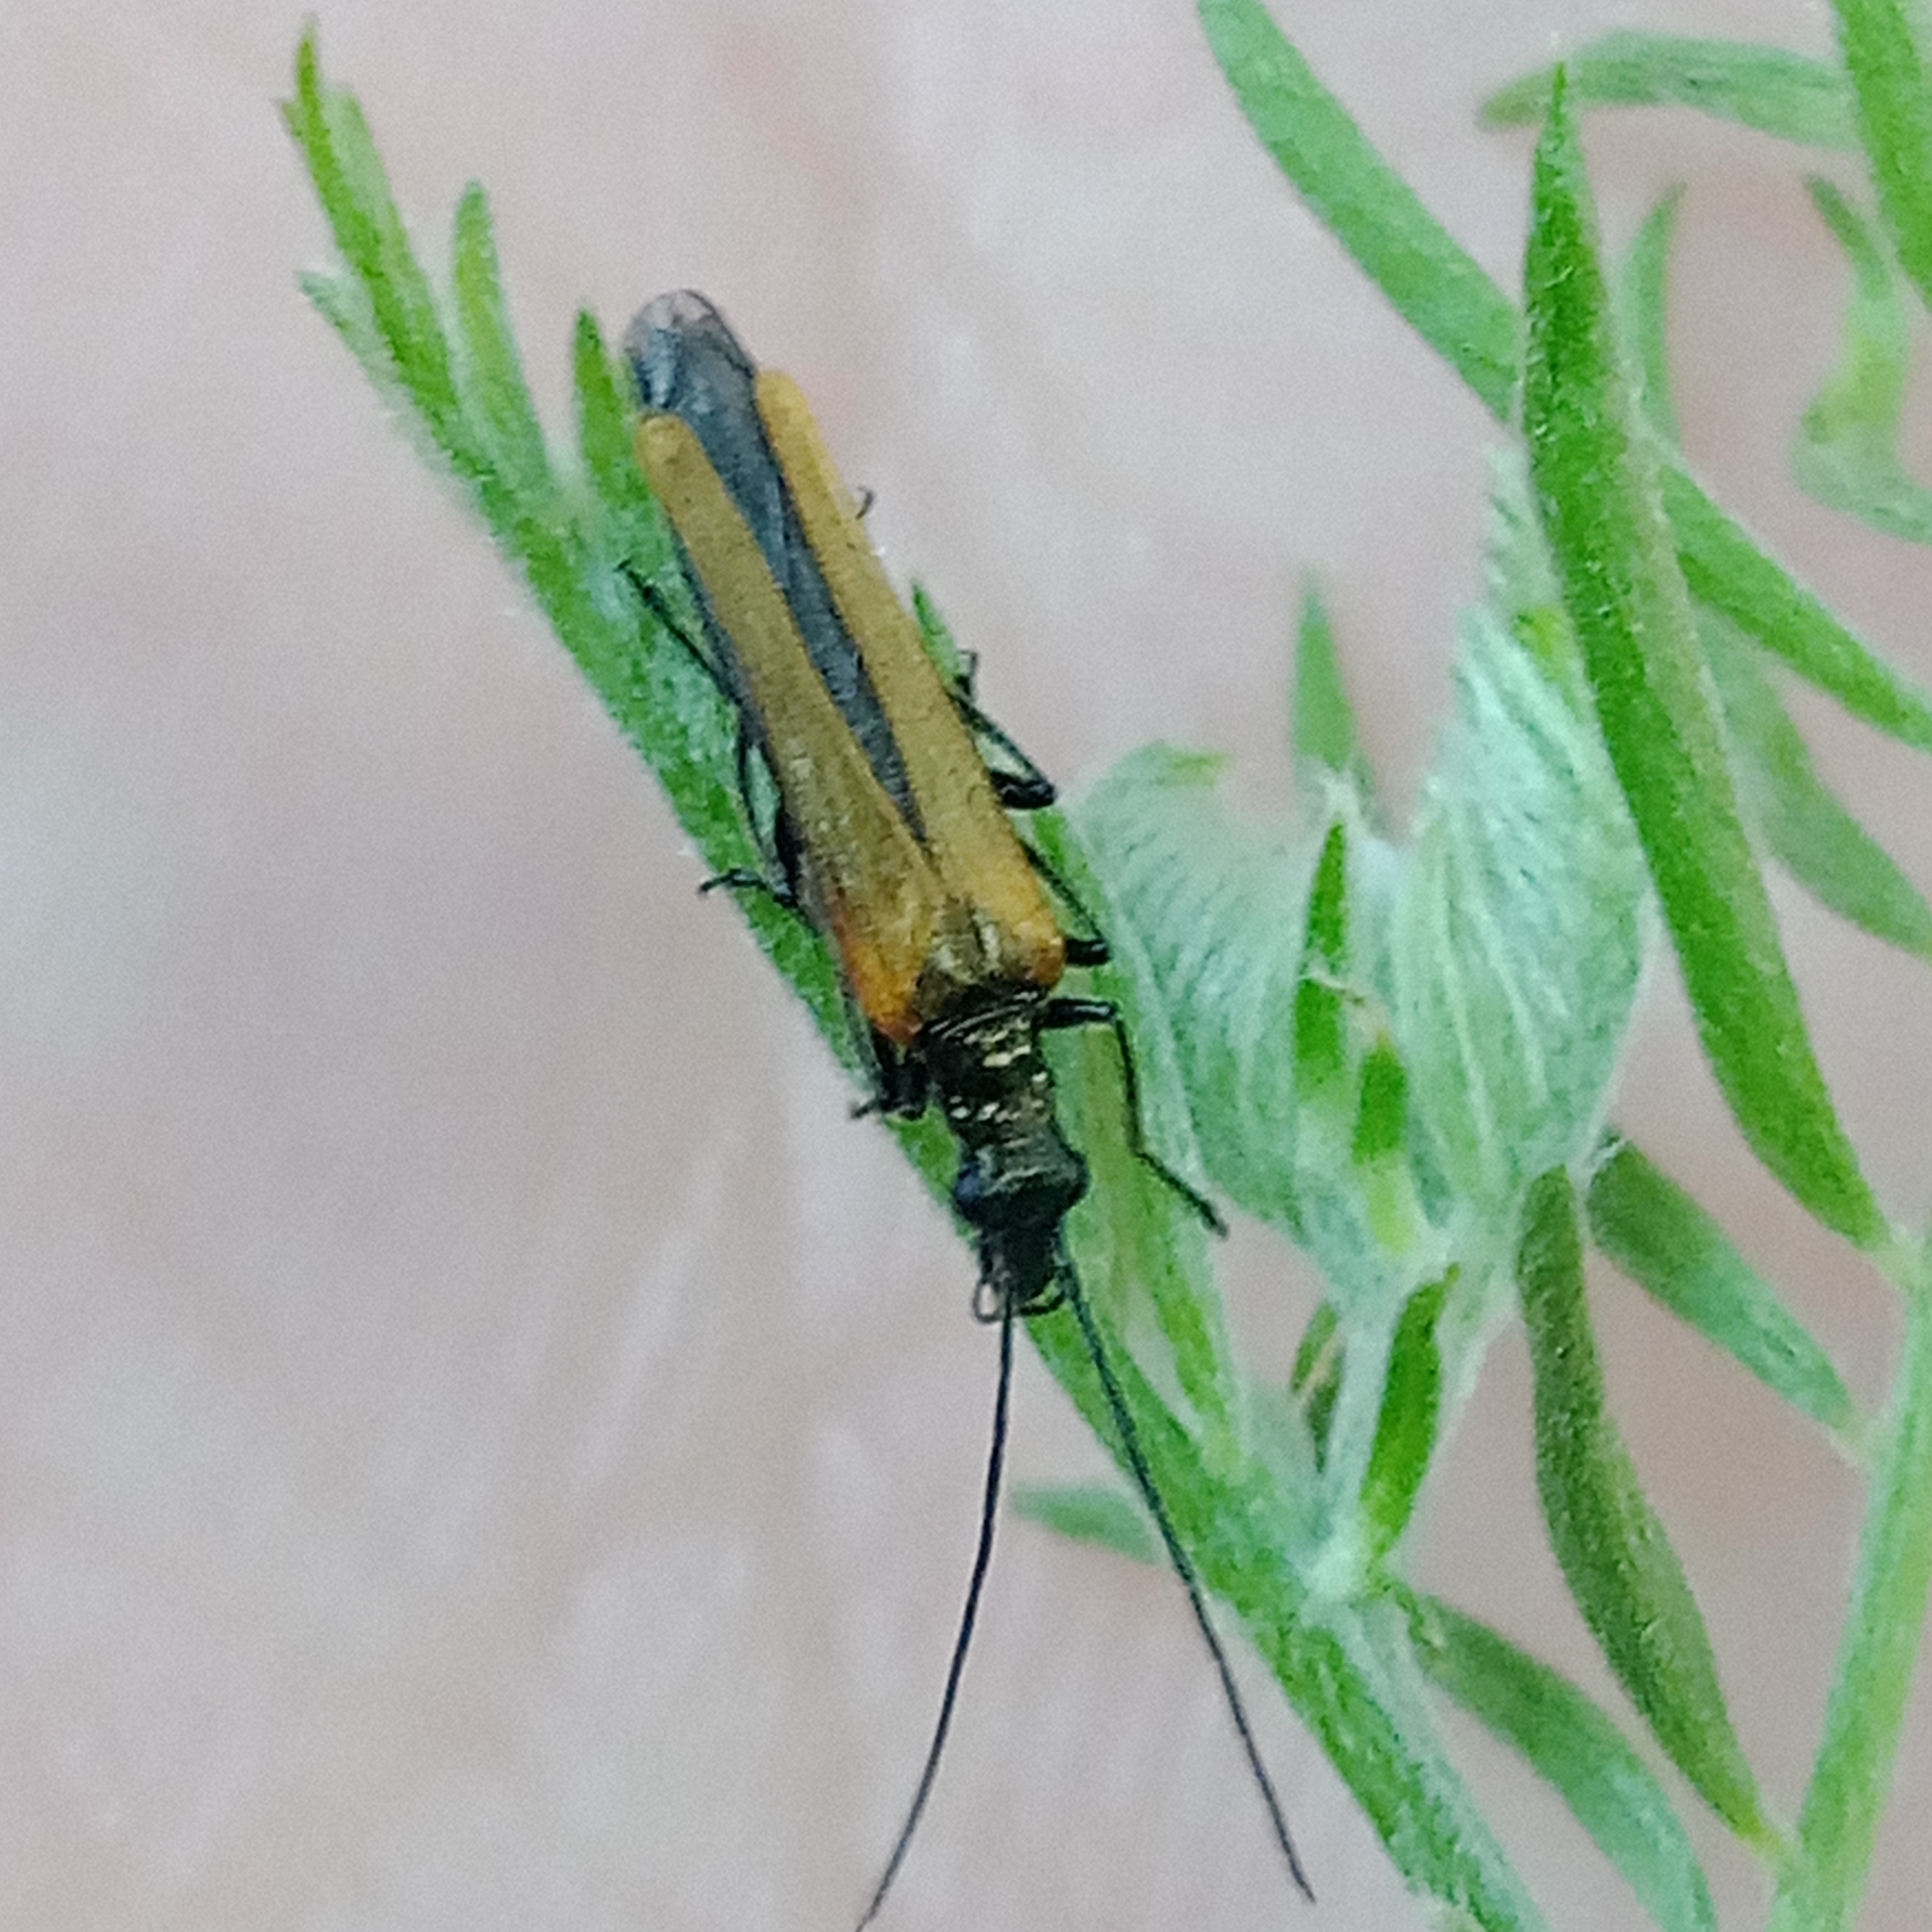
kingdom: Animalia
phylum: Arthropoda
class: Insecta
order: Coleoptera
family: Oedemeridae
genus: Oedemera
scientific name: Oedemera femorata
